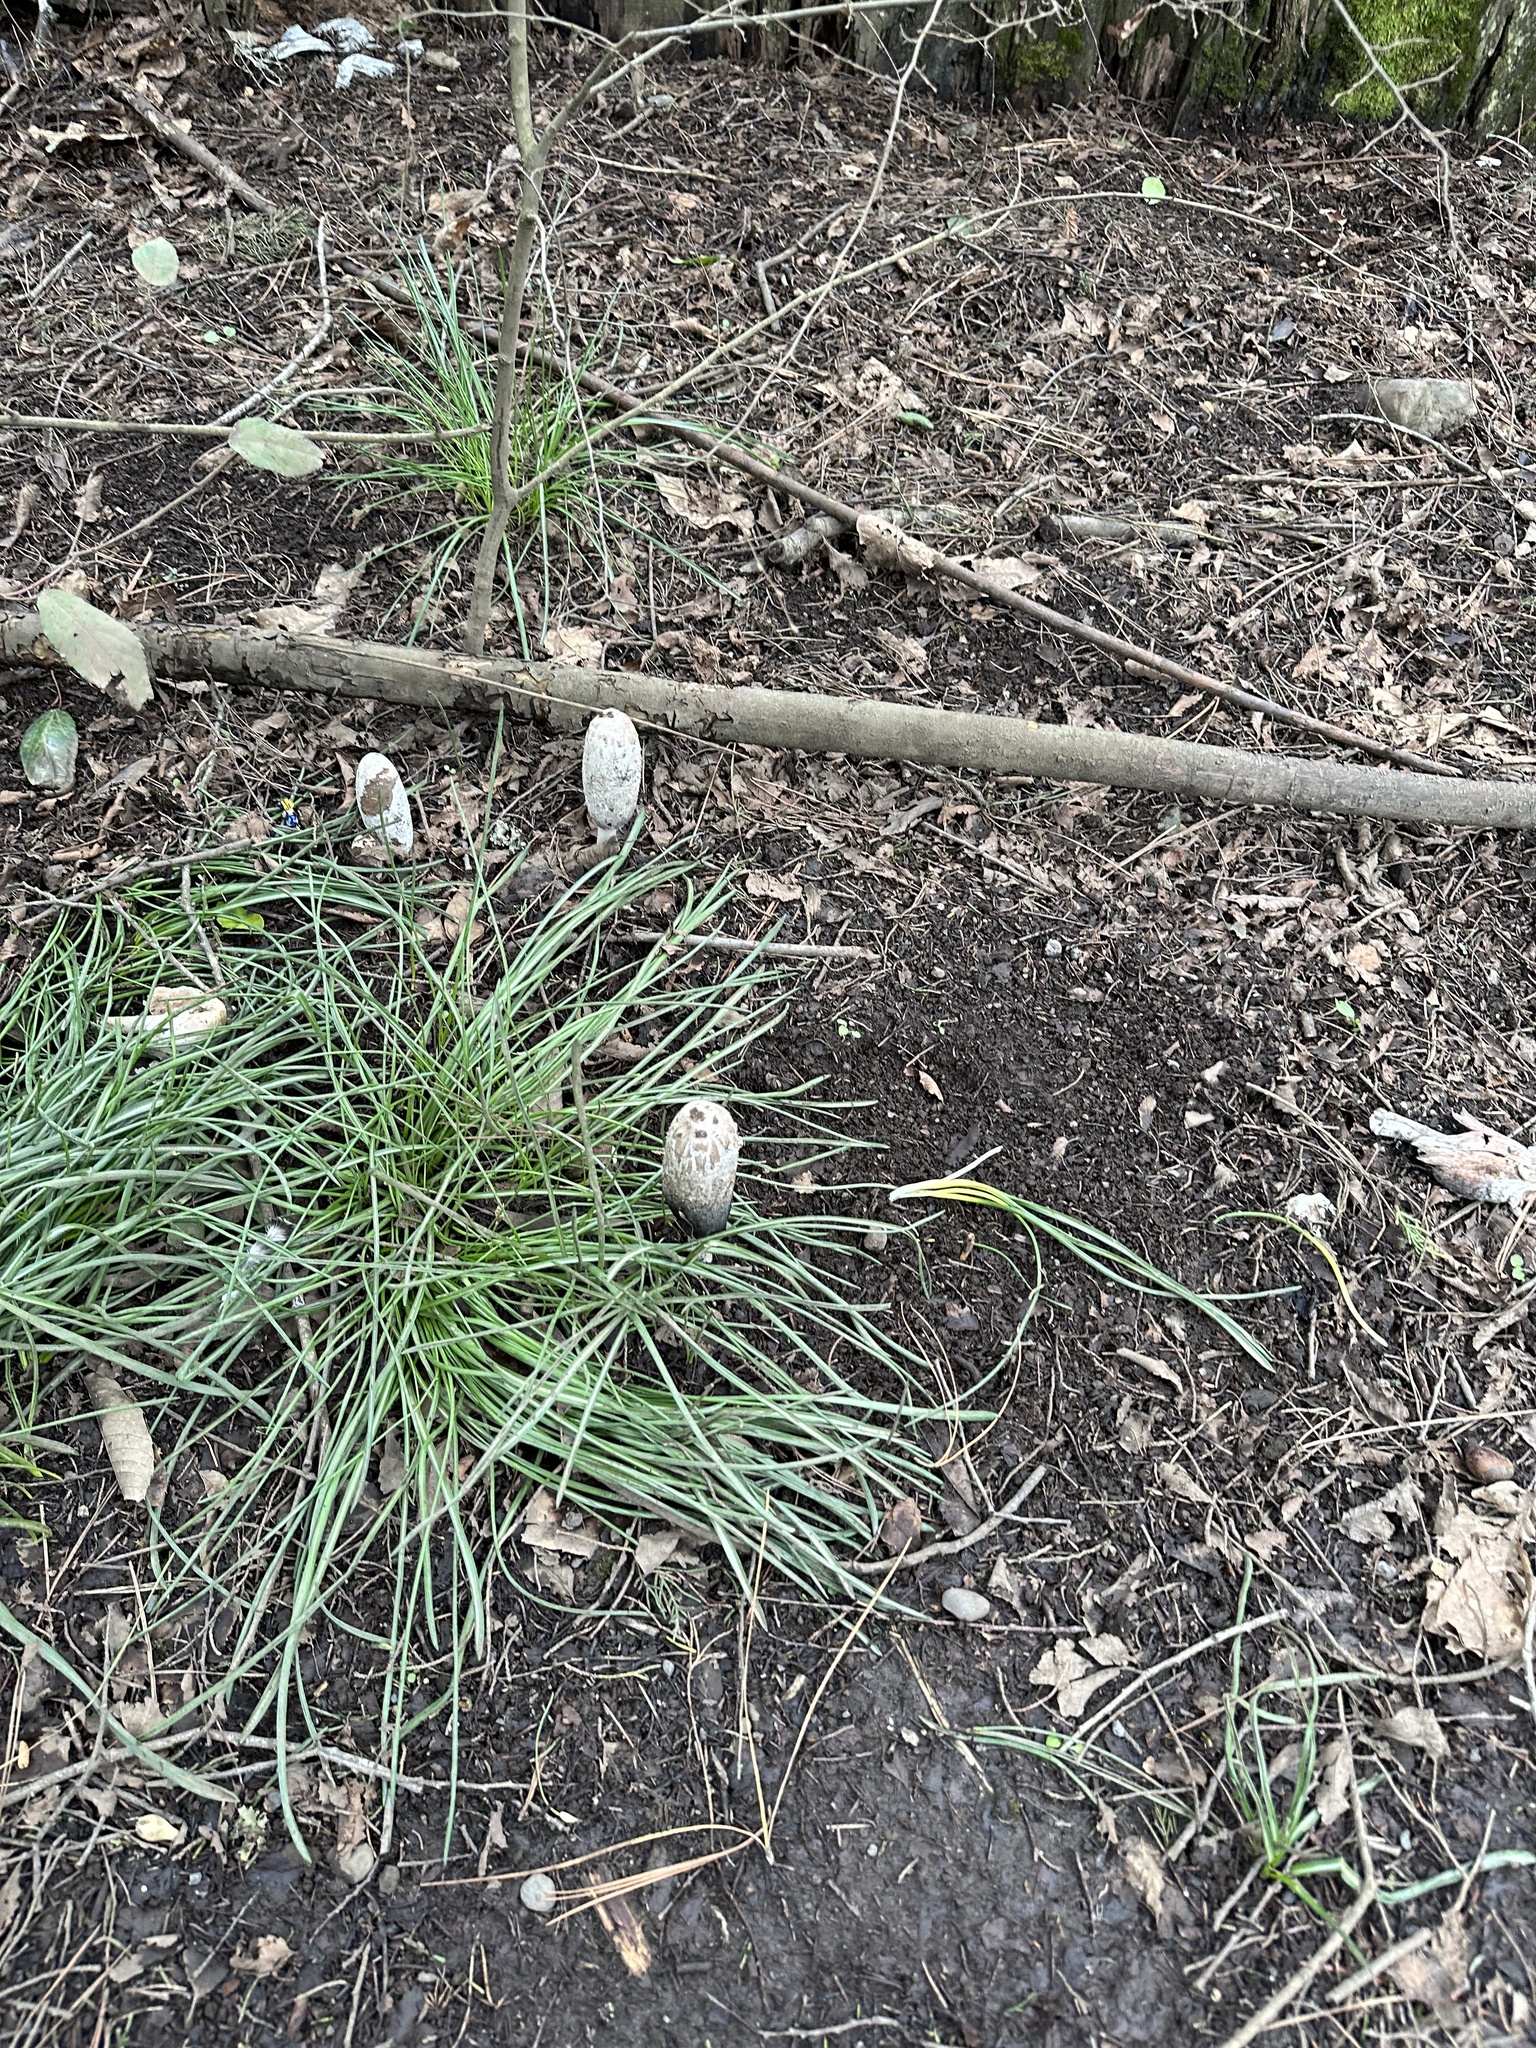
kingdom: Fungi
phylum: Basidiomycota
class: Agaricomycetes
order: Agaricales
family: Agaricaceae
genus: Coprinus
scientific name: Coprinus comatus
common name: Lawyer's wig
